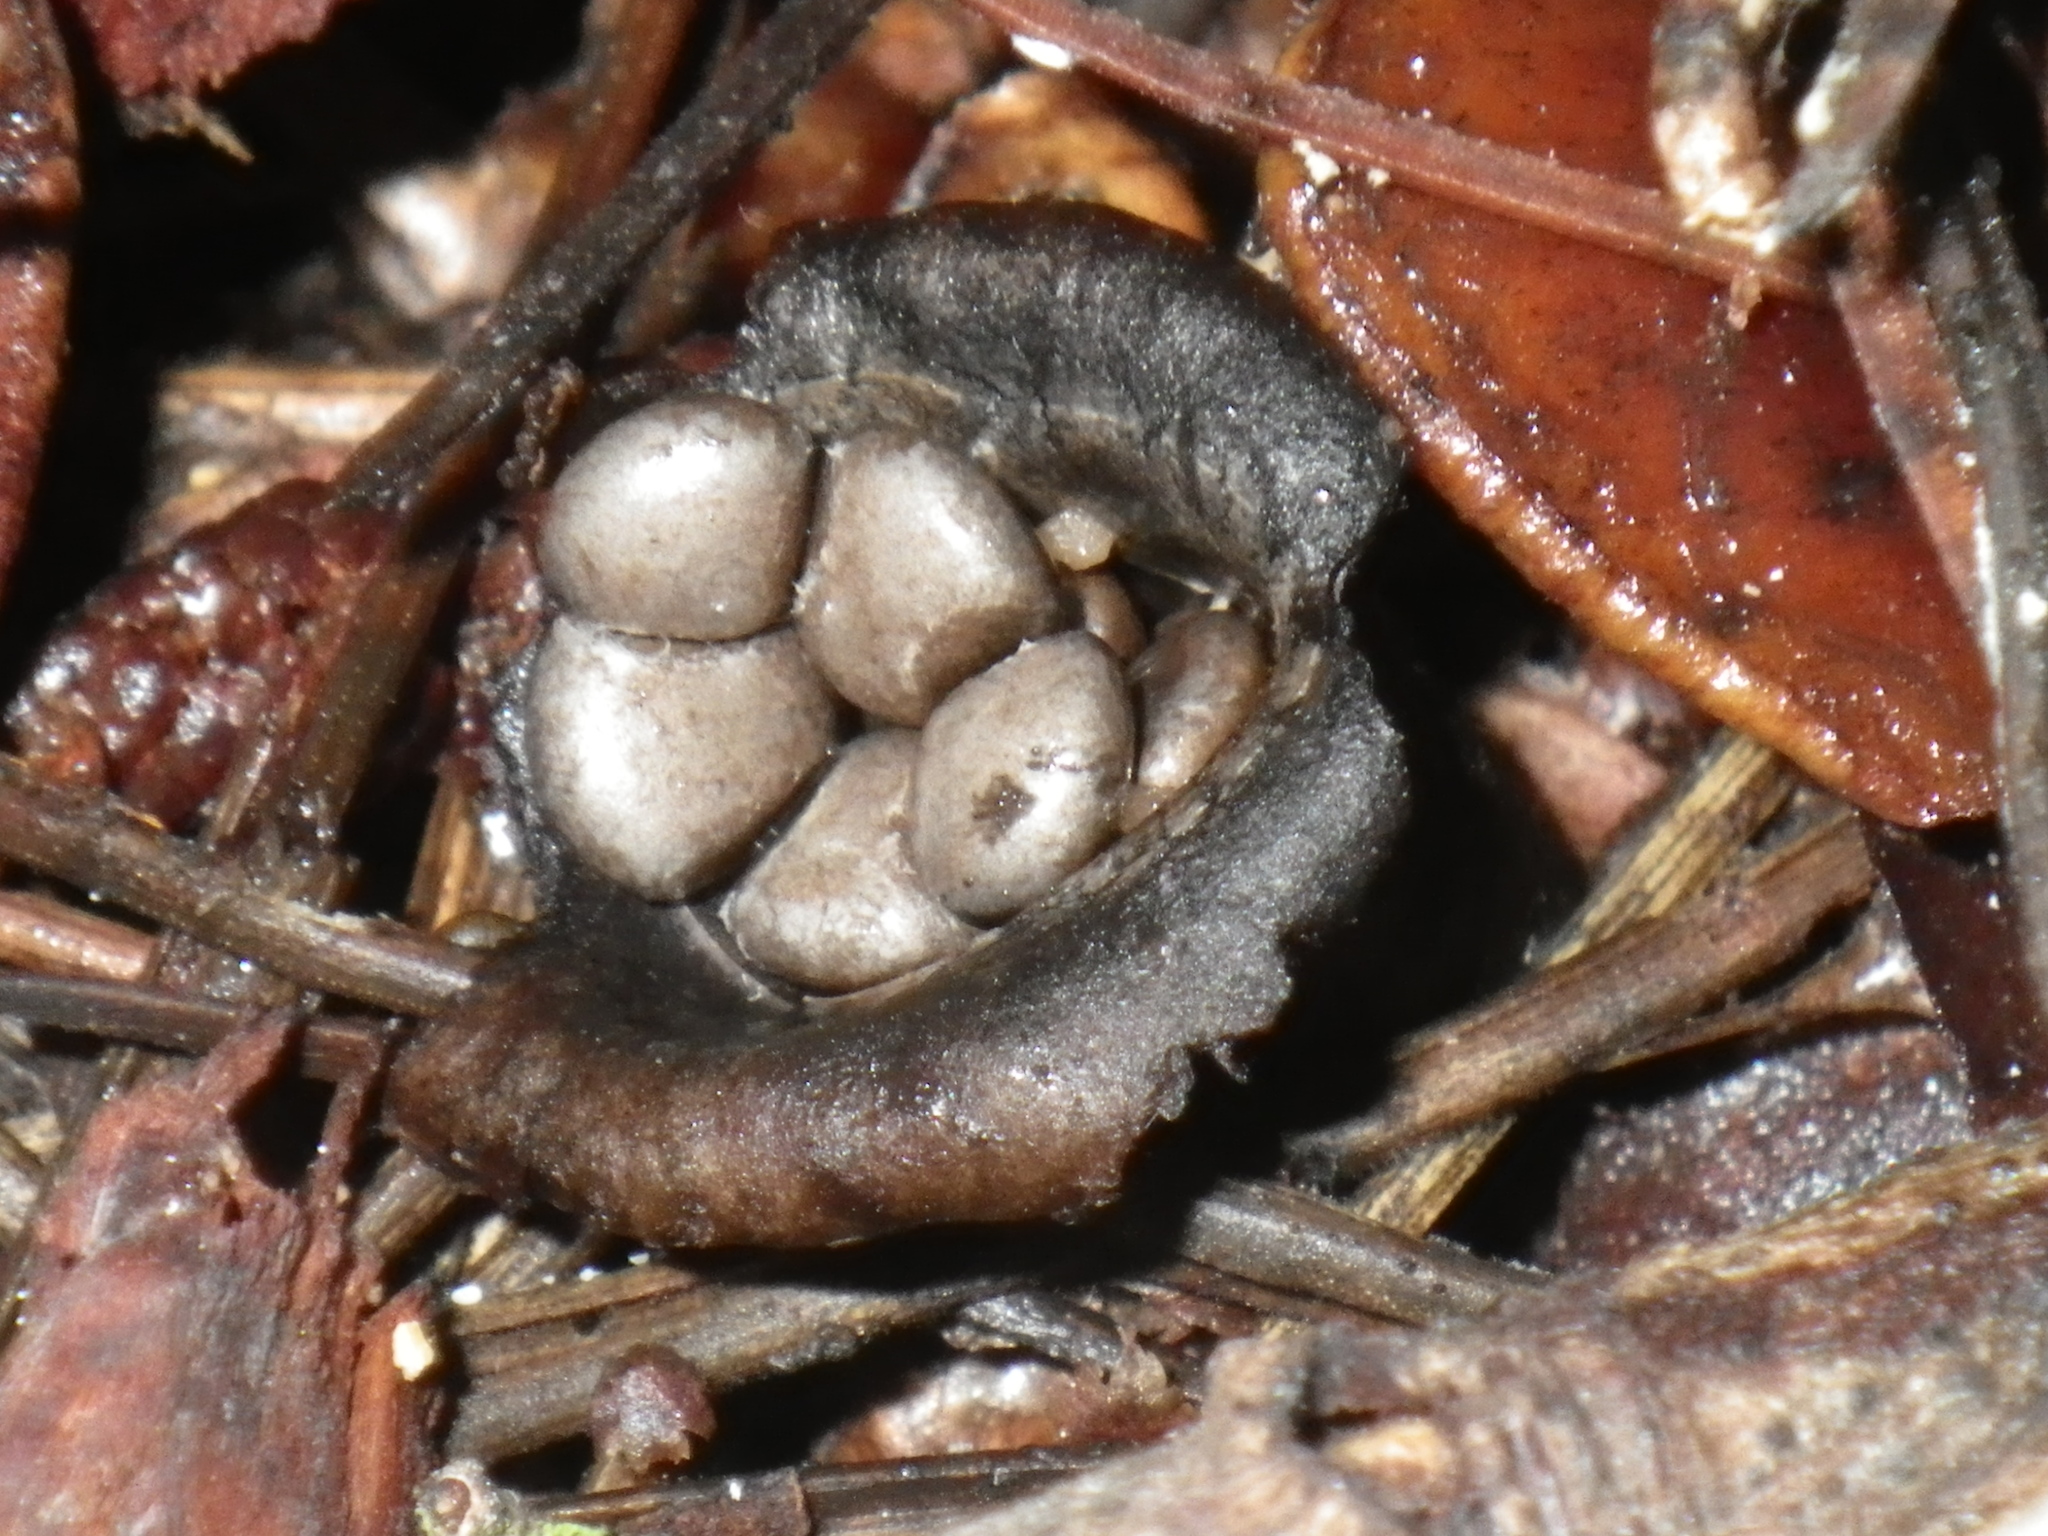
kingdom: Fungi
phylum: Basidiomycota
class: Agaricomycetes
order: Agaricales
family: Agaricaceae
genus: Cyathus
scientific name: Cyathus olla
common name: Field bird's nest
